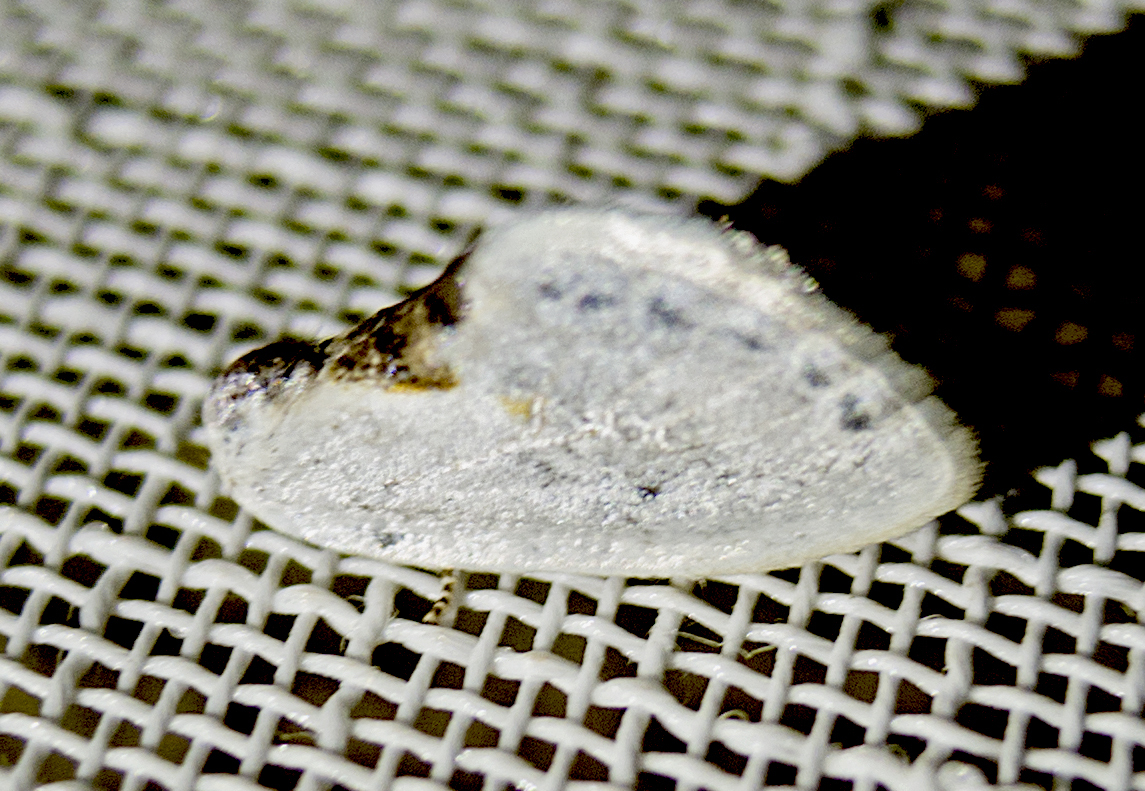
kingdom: Animalia
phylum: Arthropoda
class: Insecta
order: Lepidoptera
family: Drepanidae
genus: Cilix
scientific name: Cilix glaucata
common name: Chinese character
